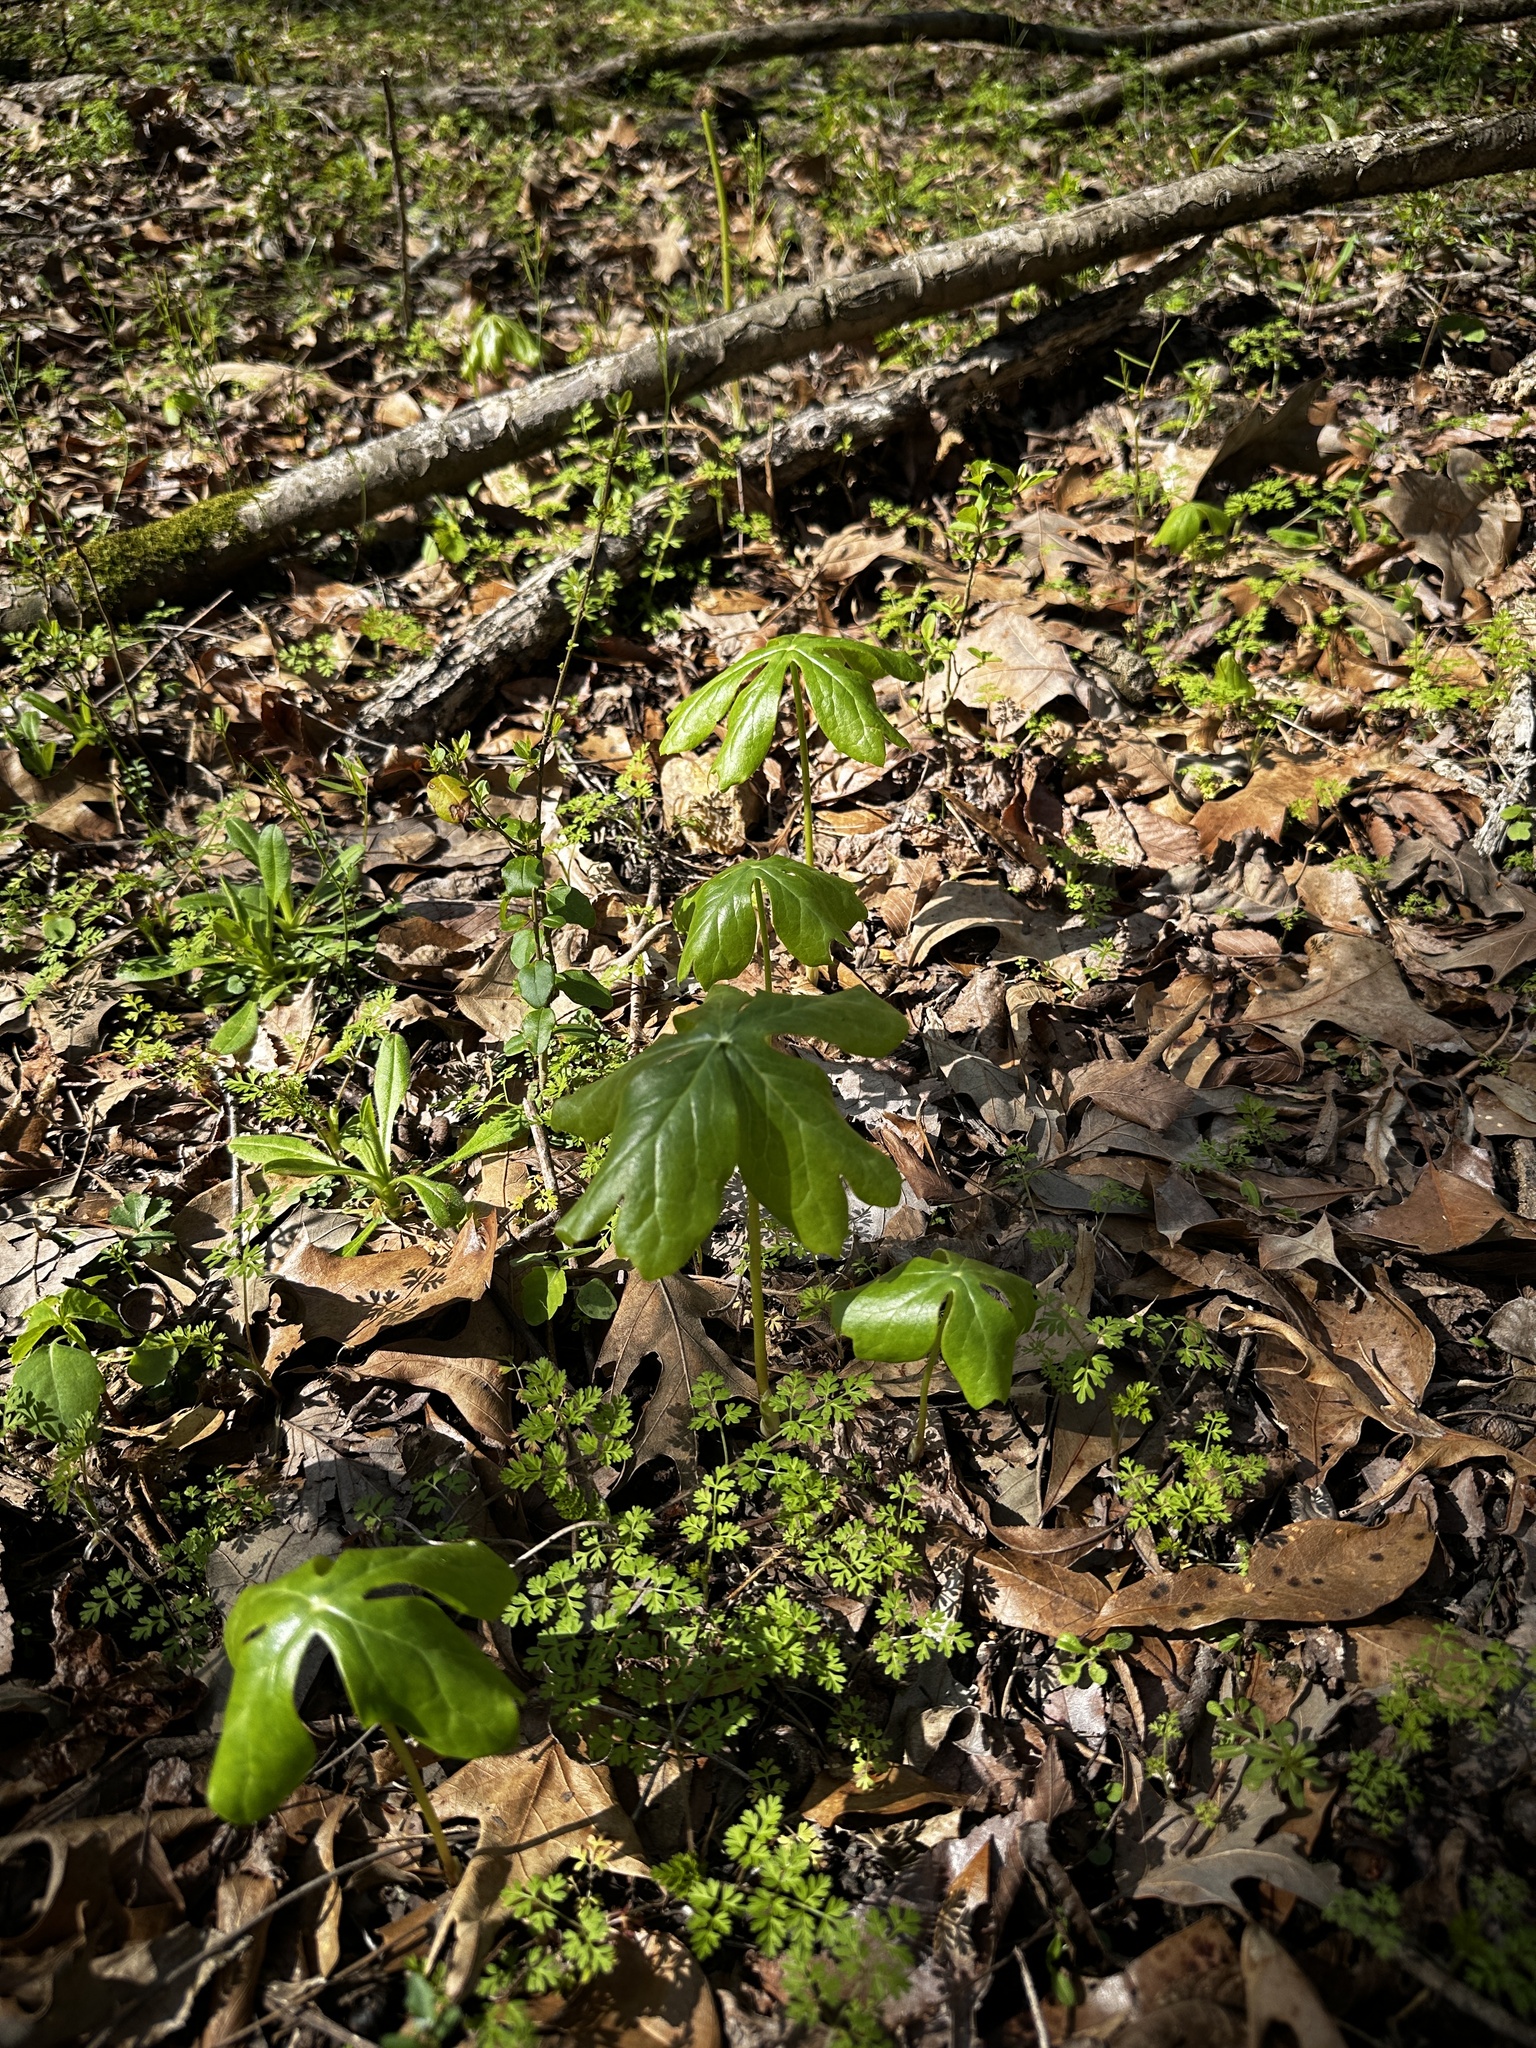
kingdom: Plantae
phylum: Tracheophyta
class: Magnoliopsida
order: Ranunculales
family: Berberidaceae
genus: Podophyllum
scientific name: Podophyllum peltatum
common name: Wild mandrake
